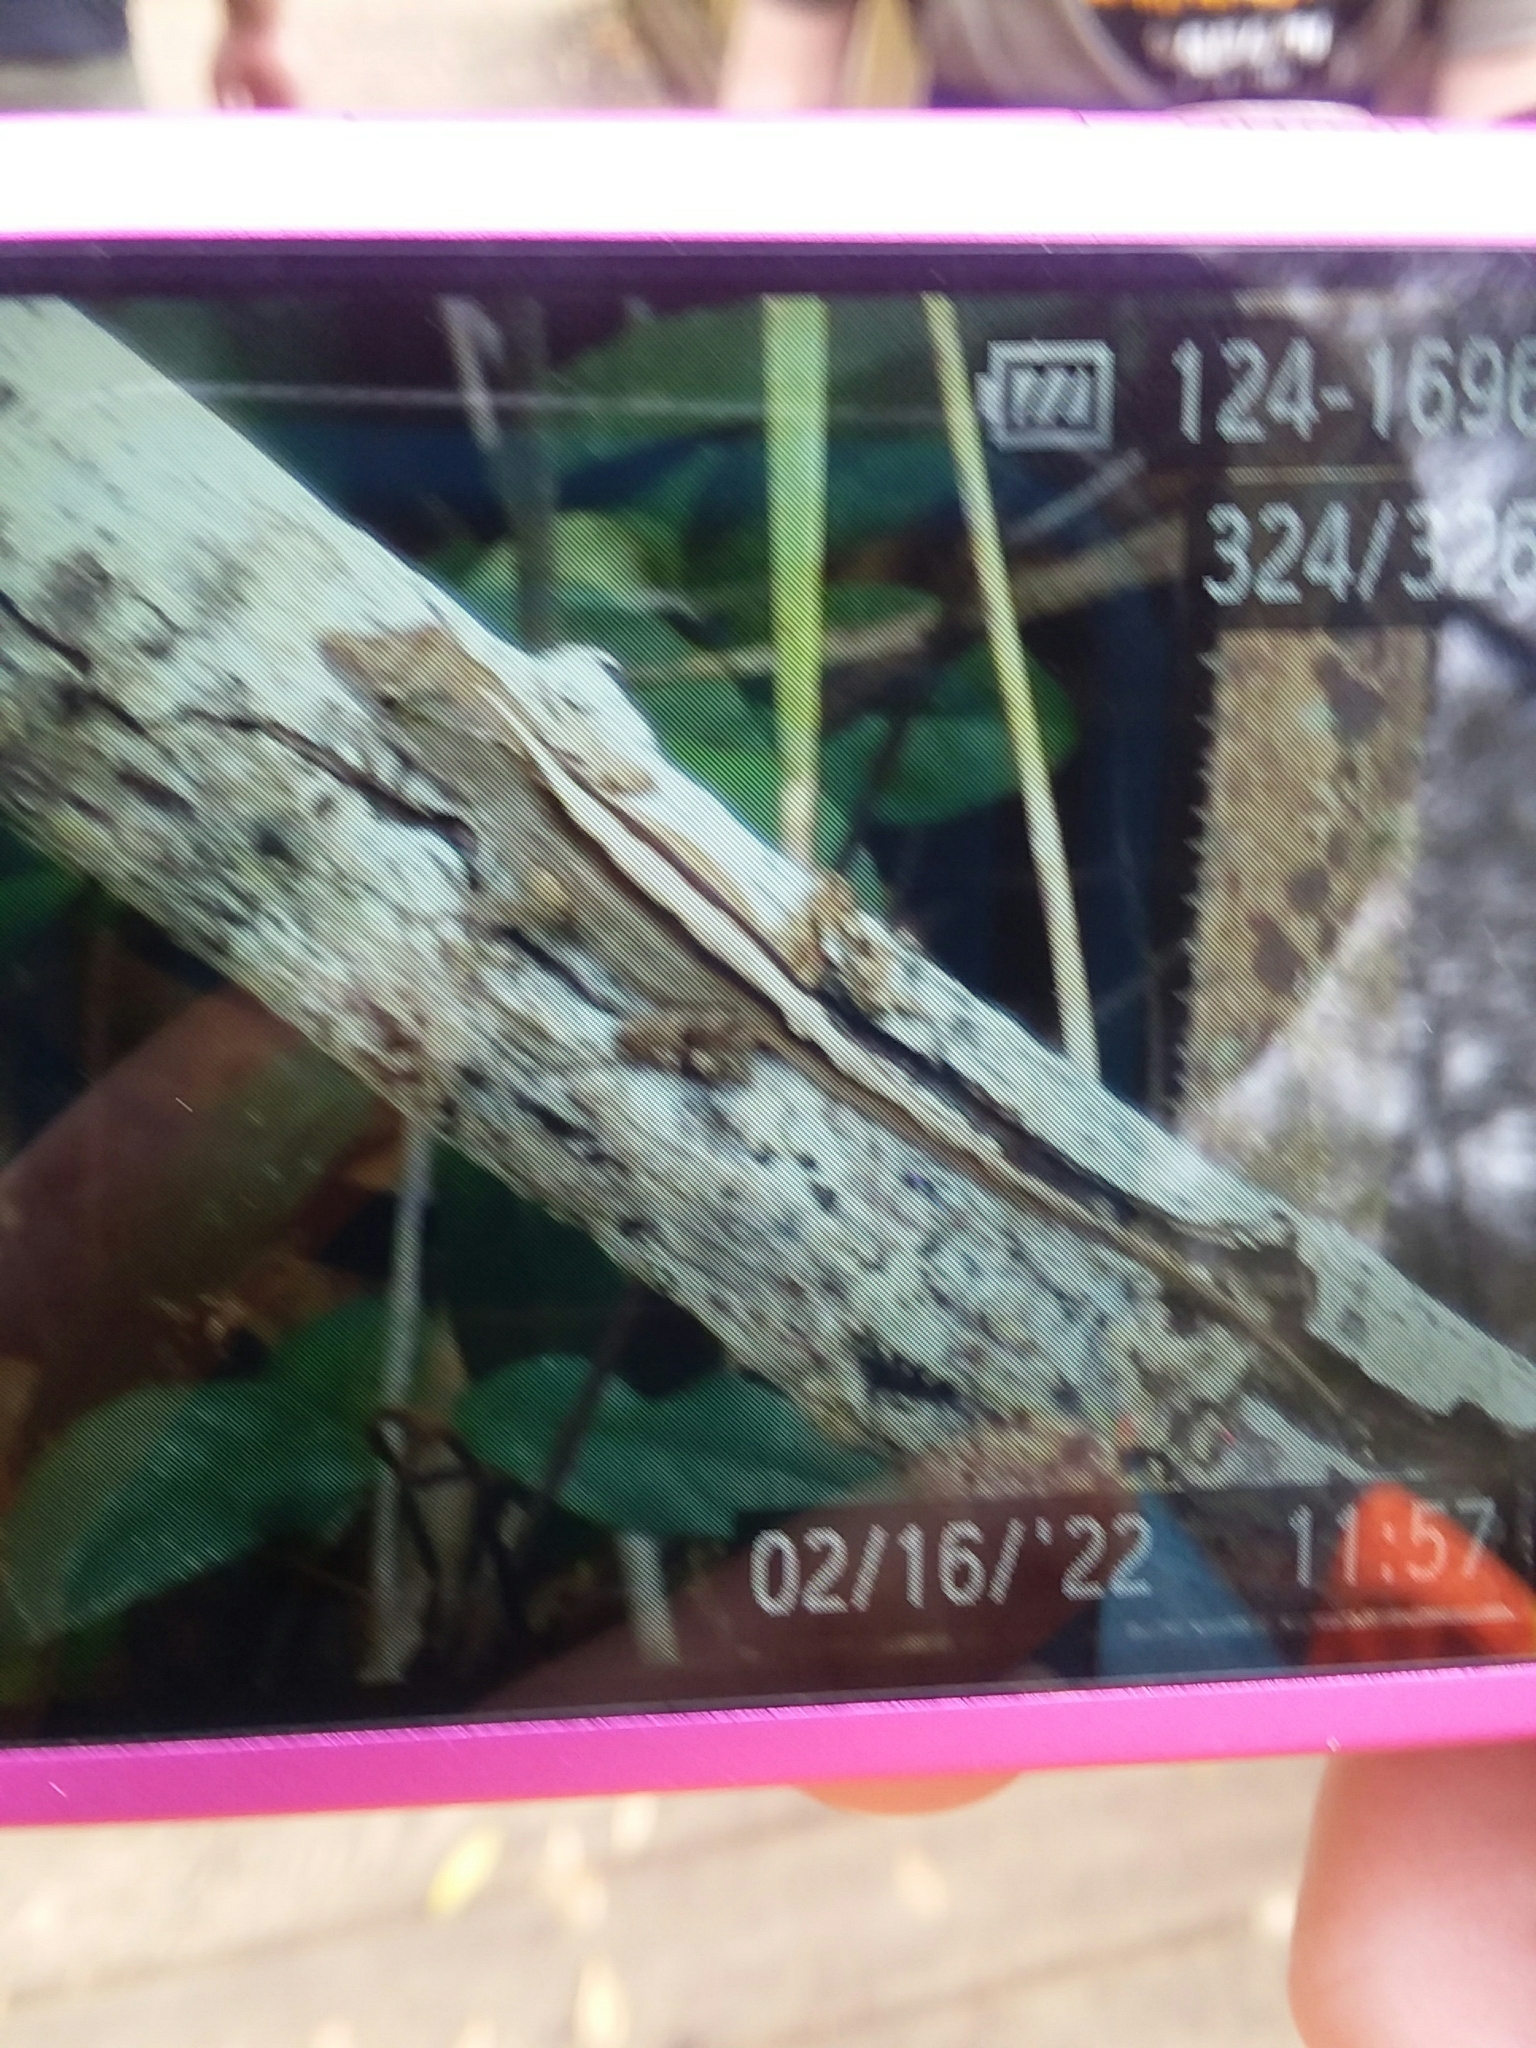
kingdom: Animalia
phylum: Chordata
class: Squamata
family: Dactyloidae
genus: Anolis
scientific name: Anolis sagrei
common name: Brown anole
